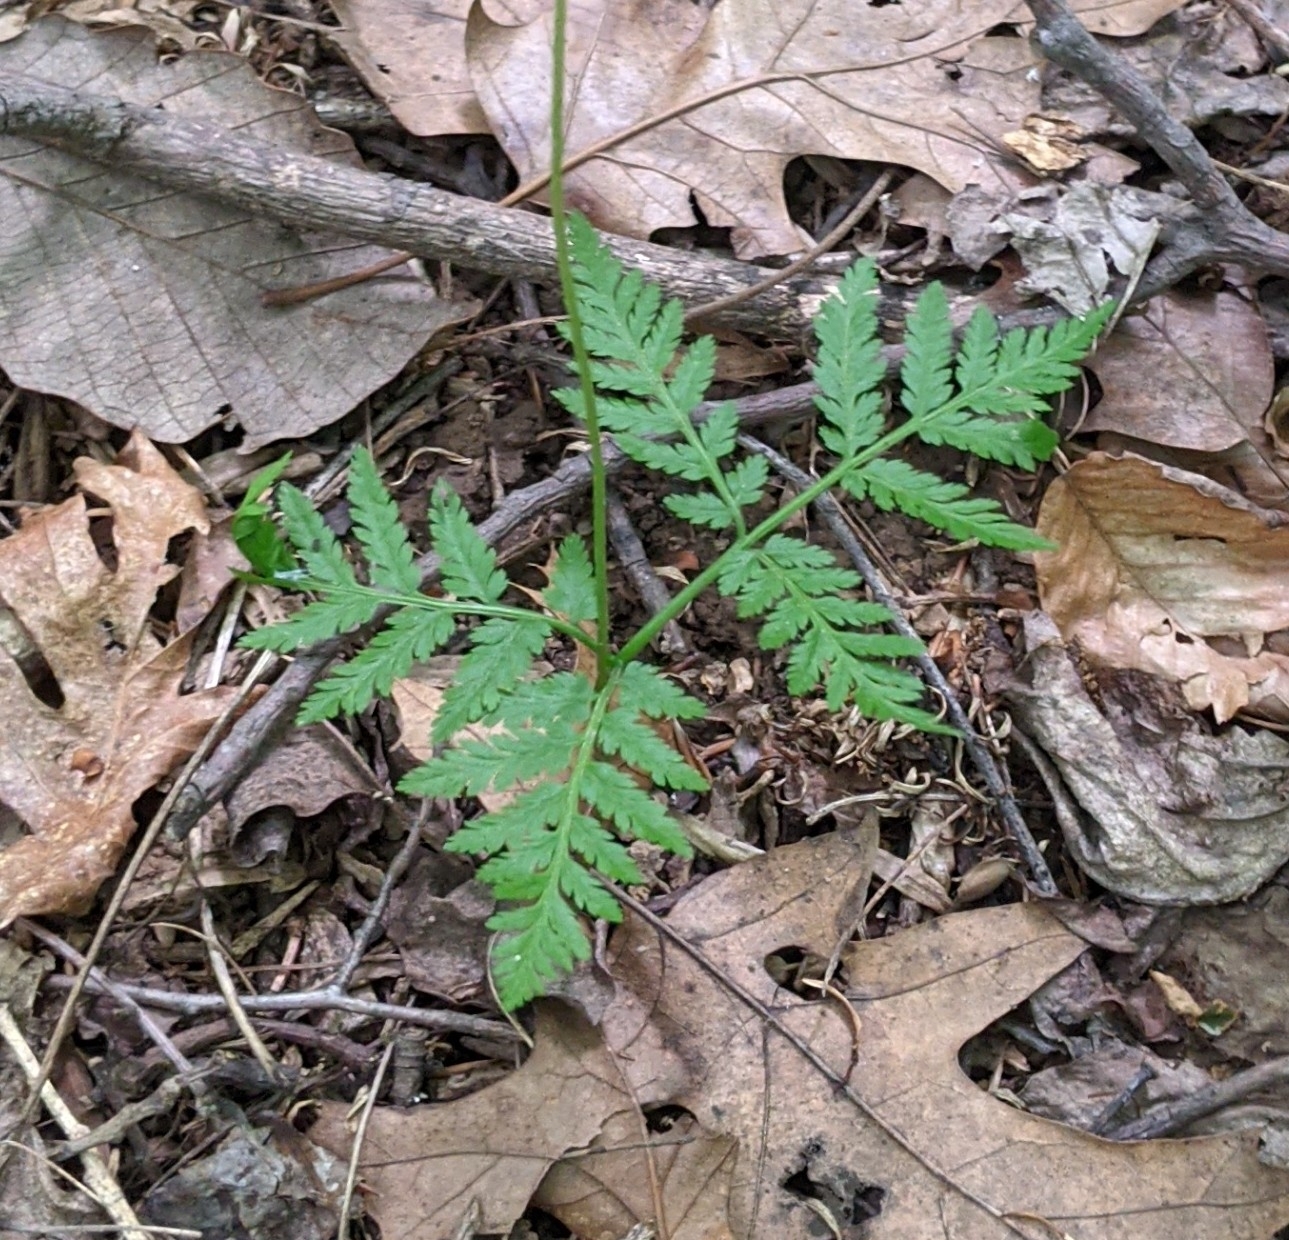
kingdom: Plantae
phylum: Tracheophyta
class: Polypodiopsida
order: Ophioglossales
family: Ophioglossaceae
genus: Botrypus
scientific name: Botrypus virginianus
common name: Common grapefern
